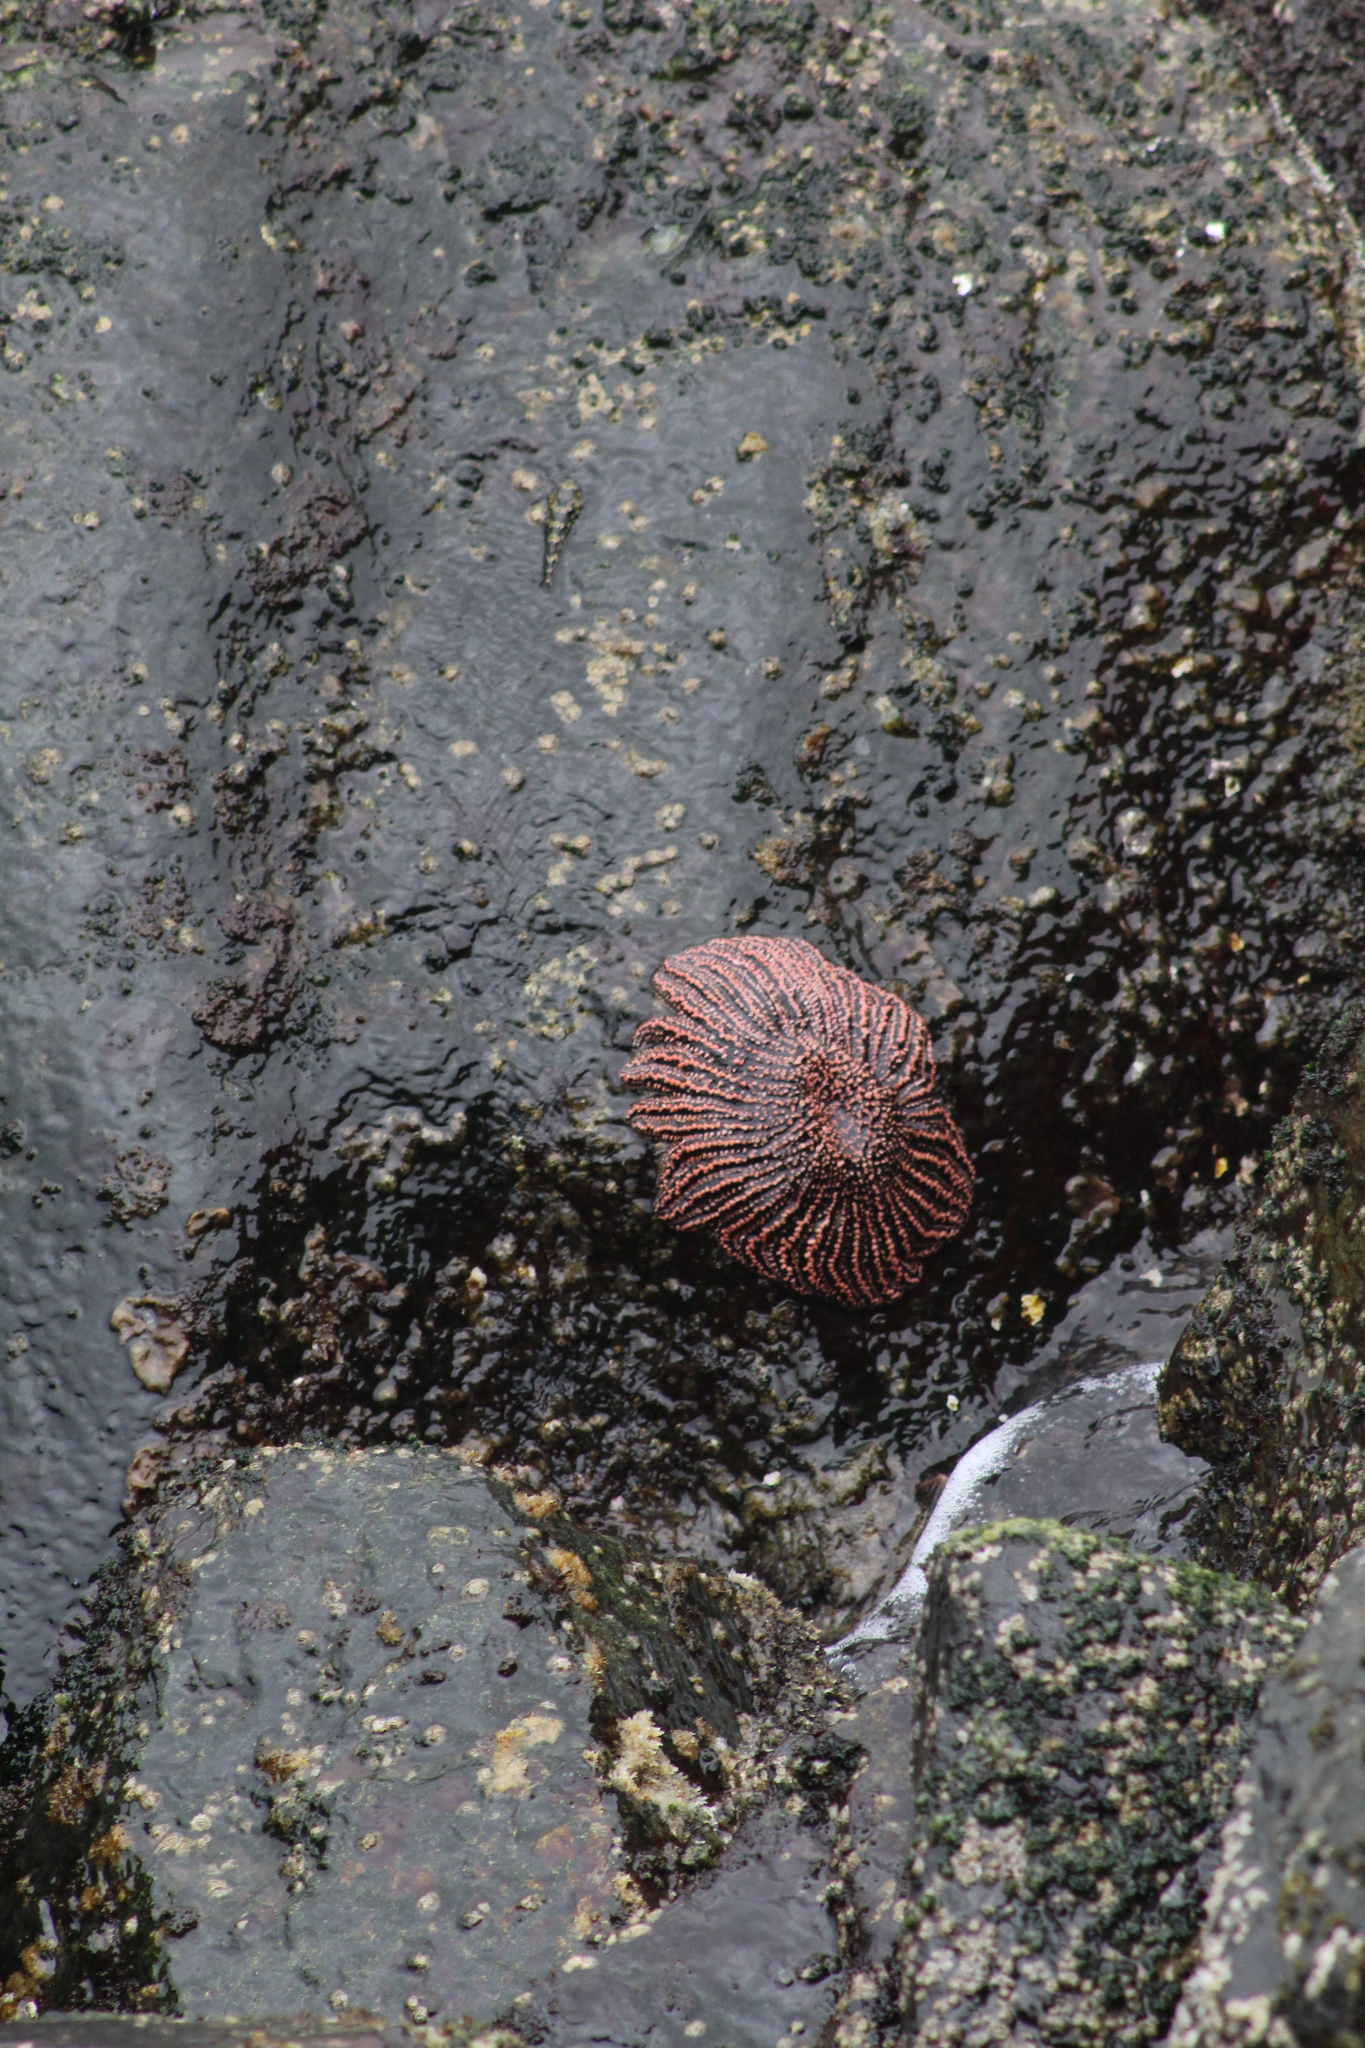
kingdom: Animalia
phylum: Echinodermata
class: Asteroidea
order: Forcipulatida
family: Heliasteridae
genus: Heliaster
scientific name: Heliaster helianthus
